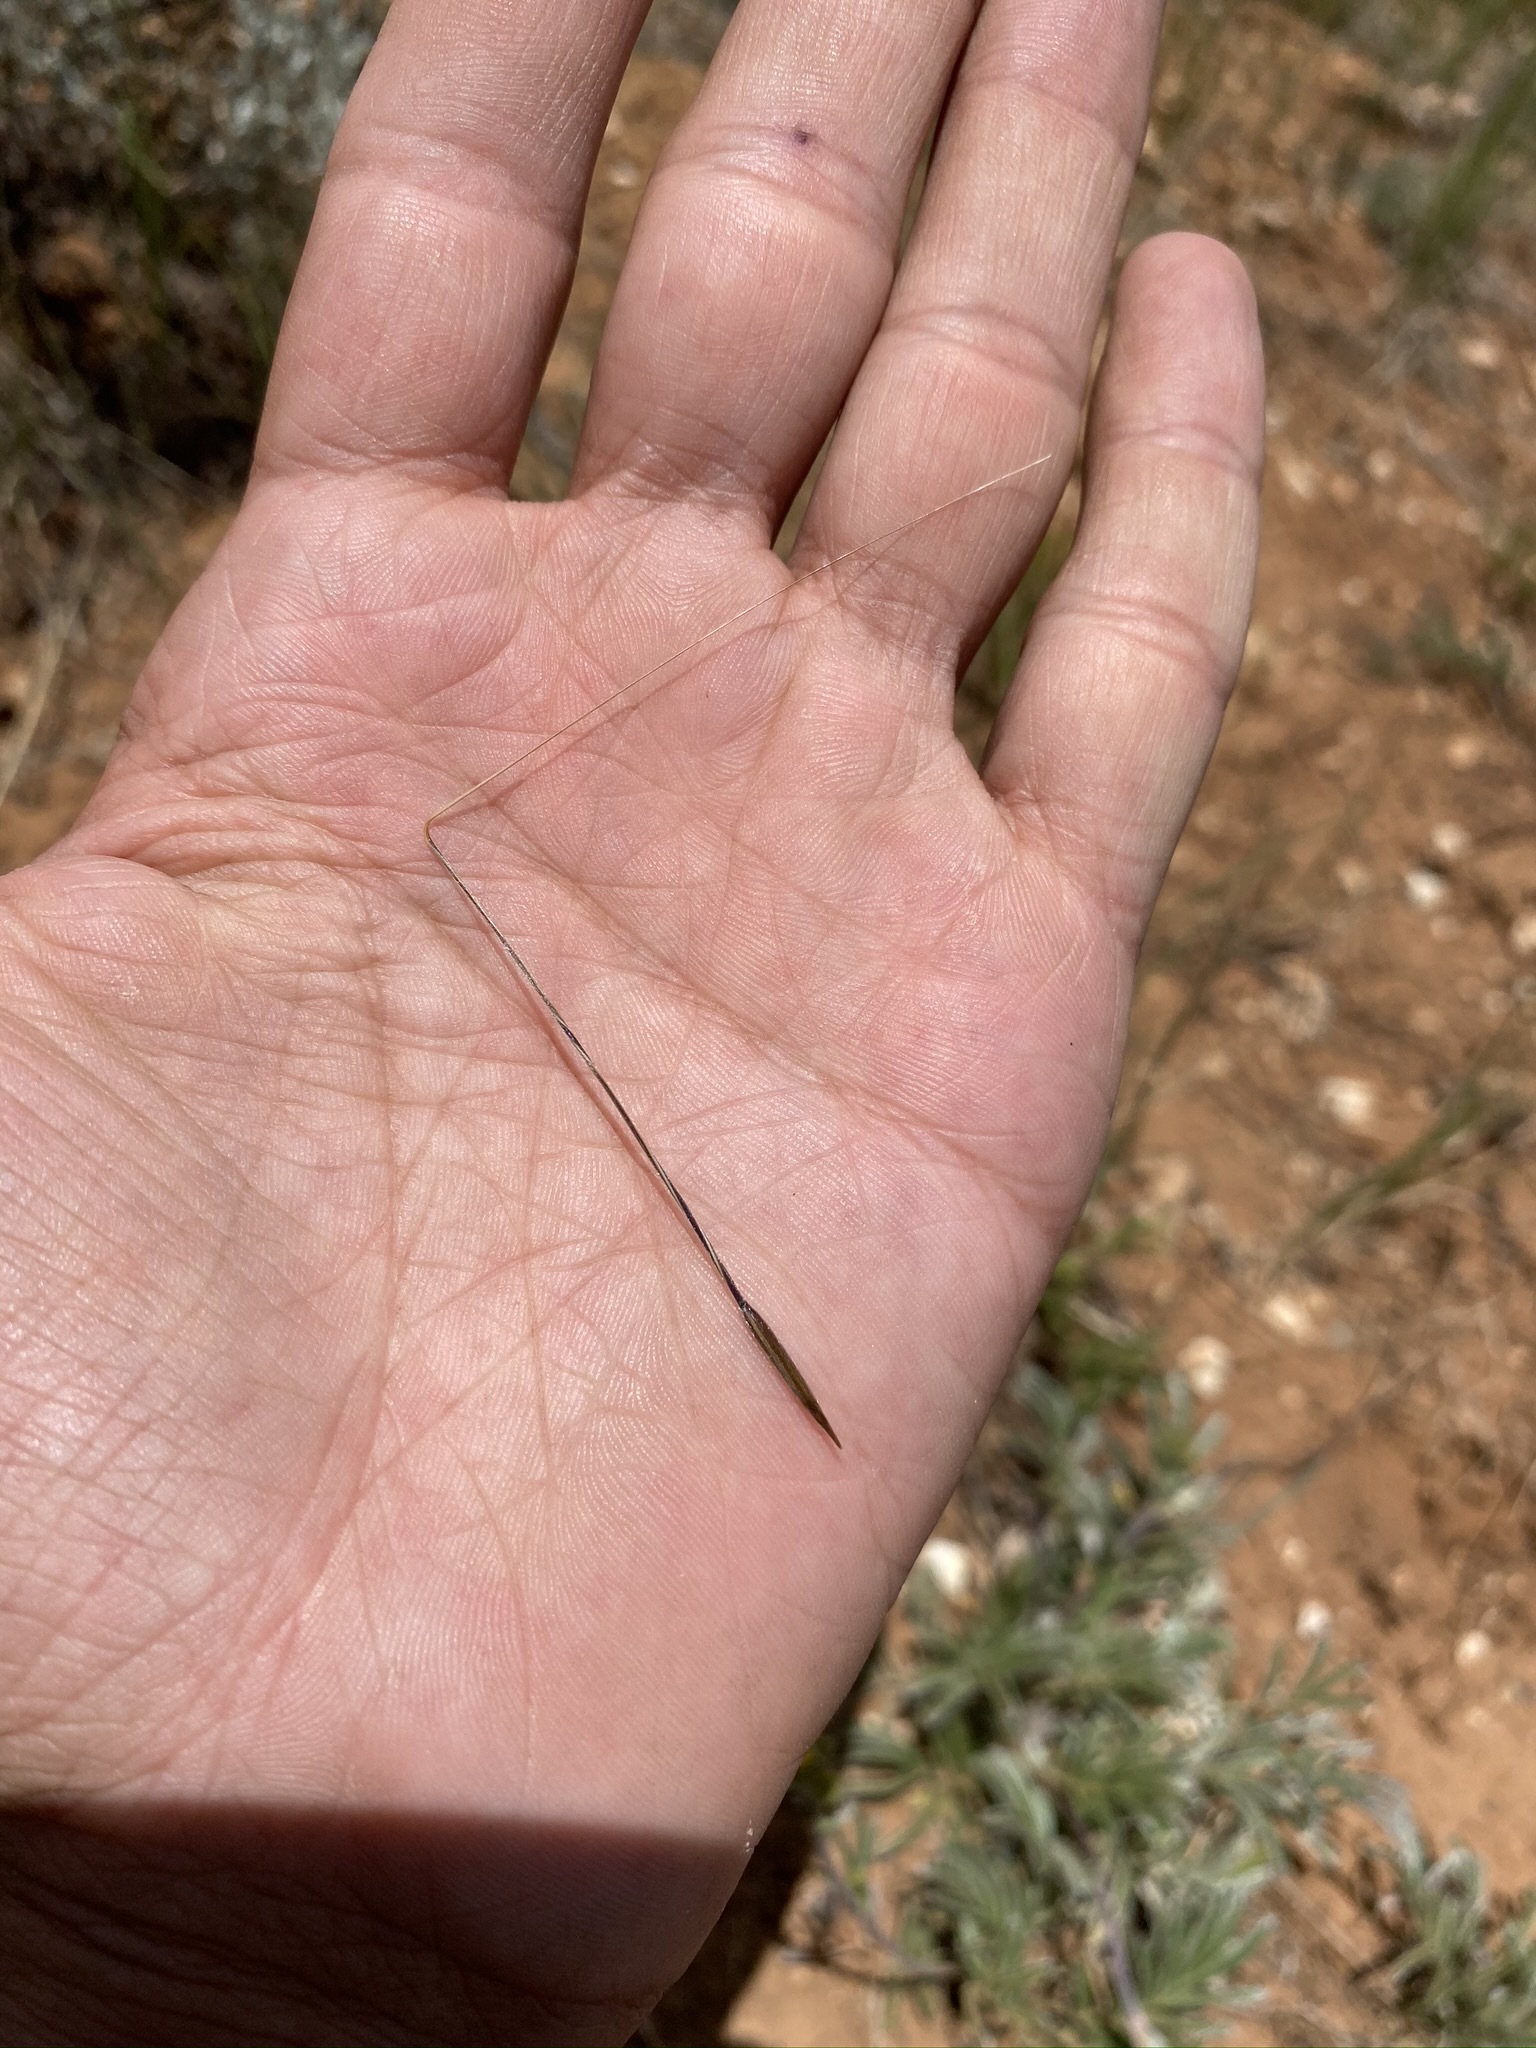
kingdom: Plantae
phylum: Tracheophyta
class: Liliopsida
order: Poales
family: Poaceae
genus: Hesperostipa
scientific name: Hesperostipa comata
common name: Needle-and-thread grass
